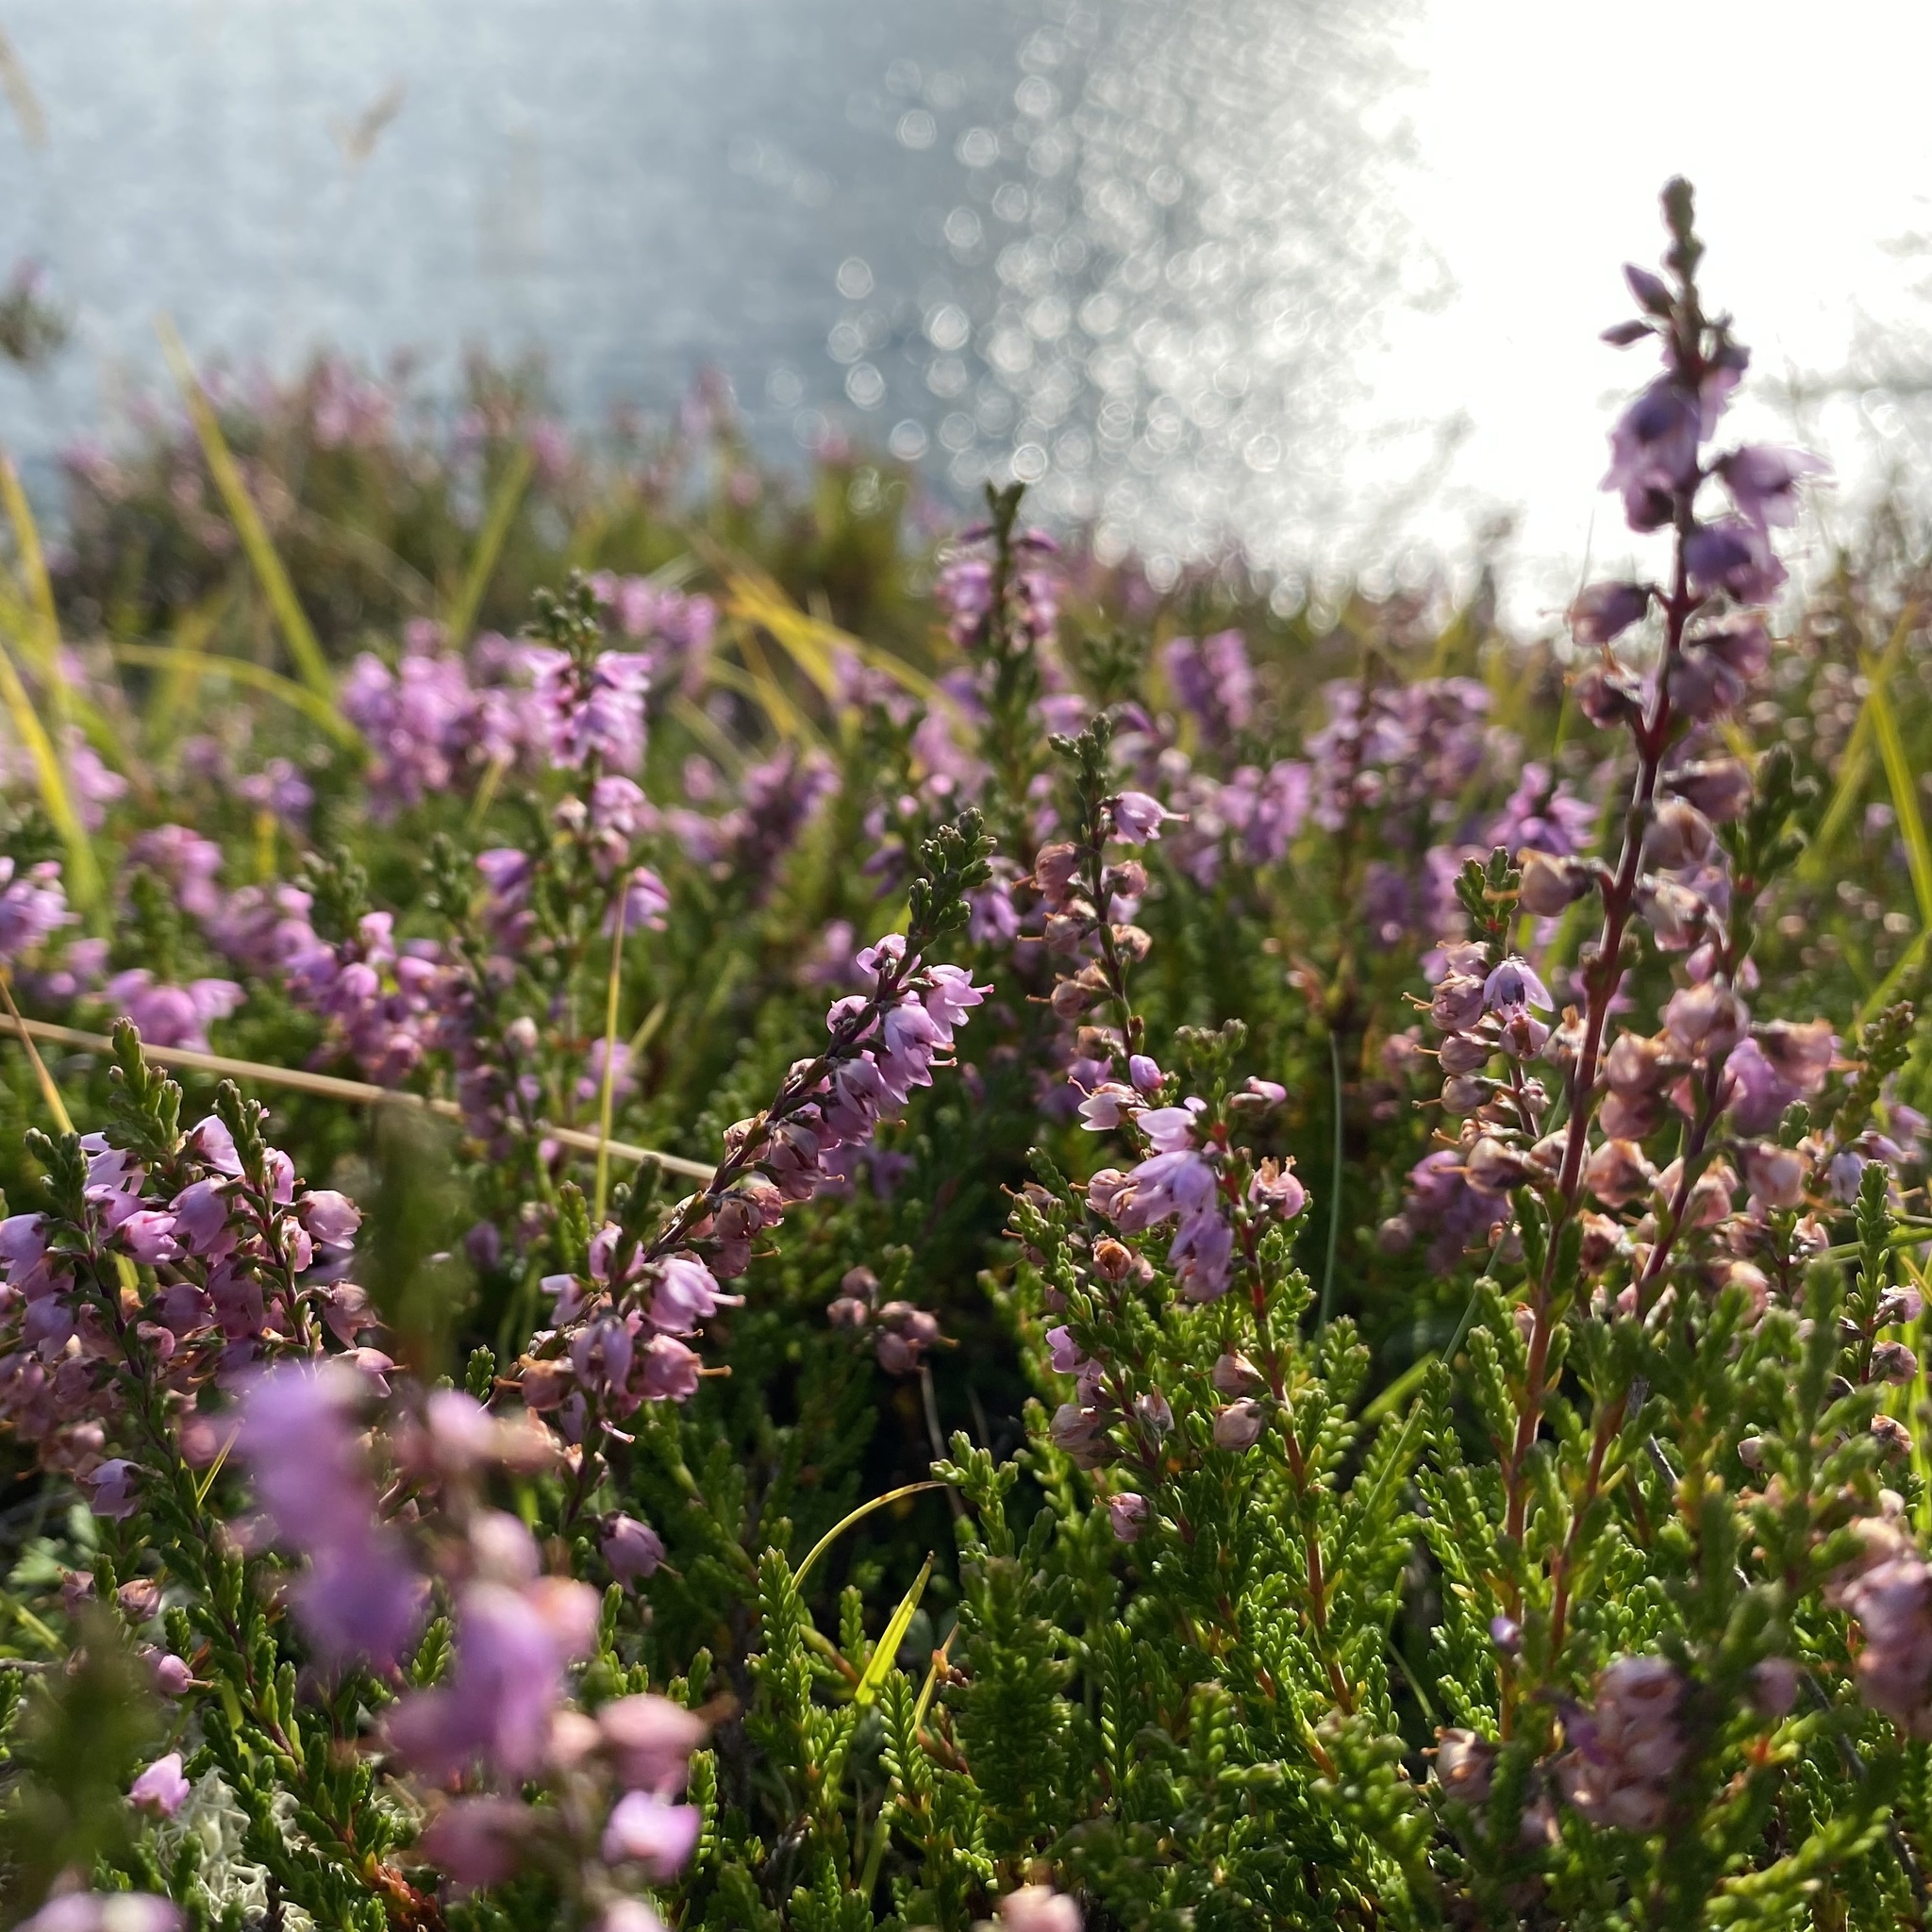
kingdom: Plantae
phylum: Tracheophyta
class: Magnoliopsida
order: Ericales
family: Ericaceae
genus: Calluna
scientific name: Calluna vulgaris
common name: Heather
